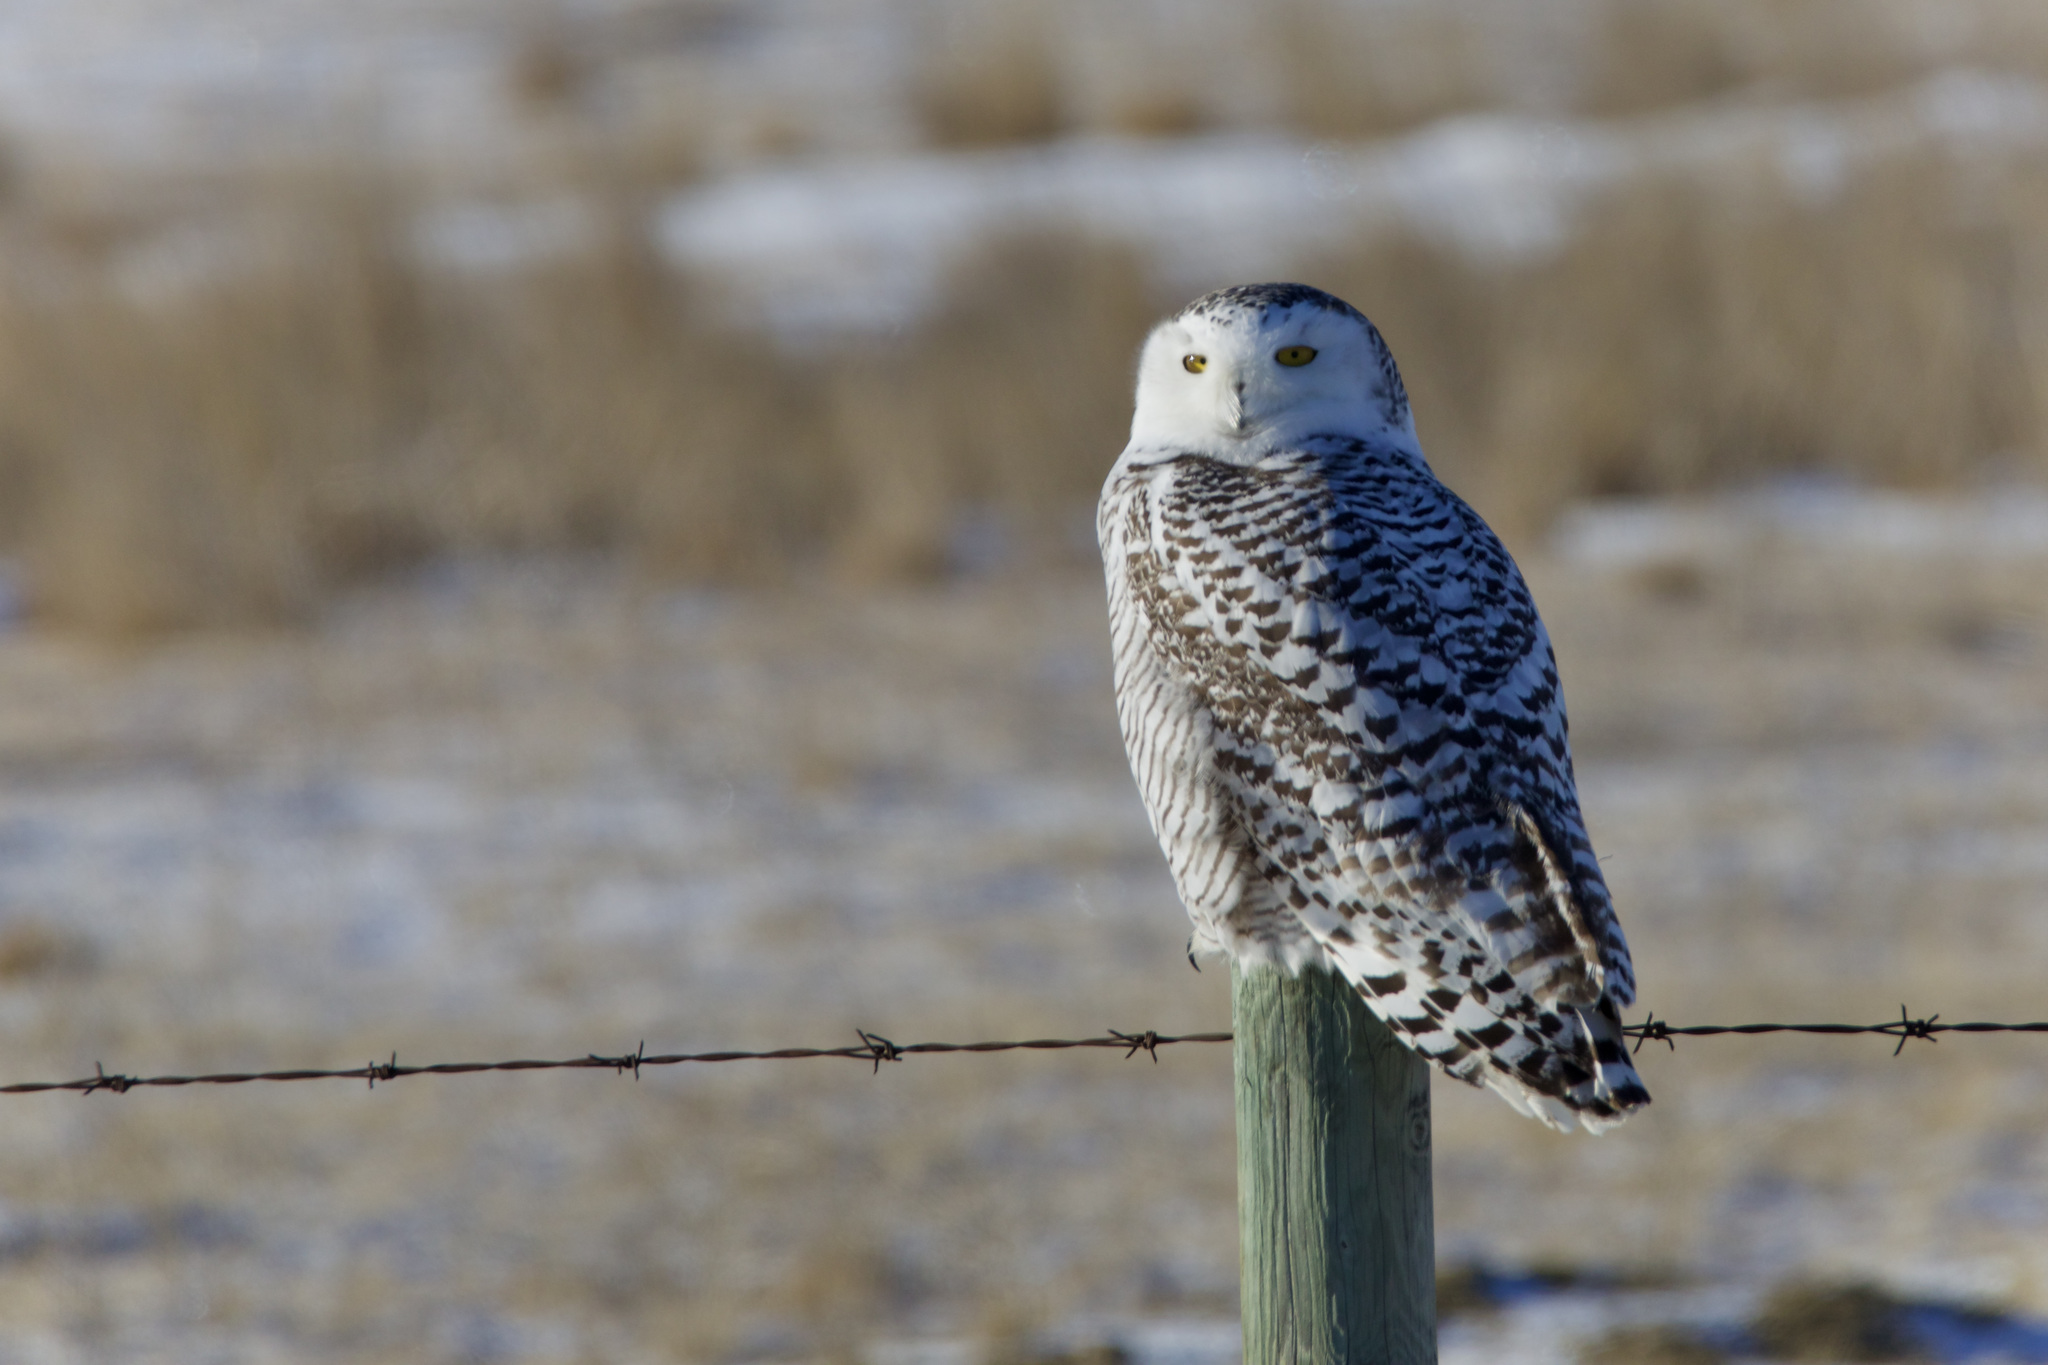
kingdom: Animalia
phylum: Chordata
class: Aves
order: Strigiformes
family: Strigidae
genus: Bubo
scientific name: Bubo scandiacus
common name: Snowy owl
